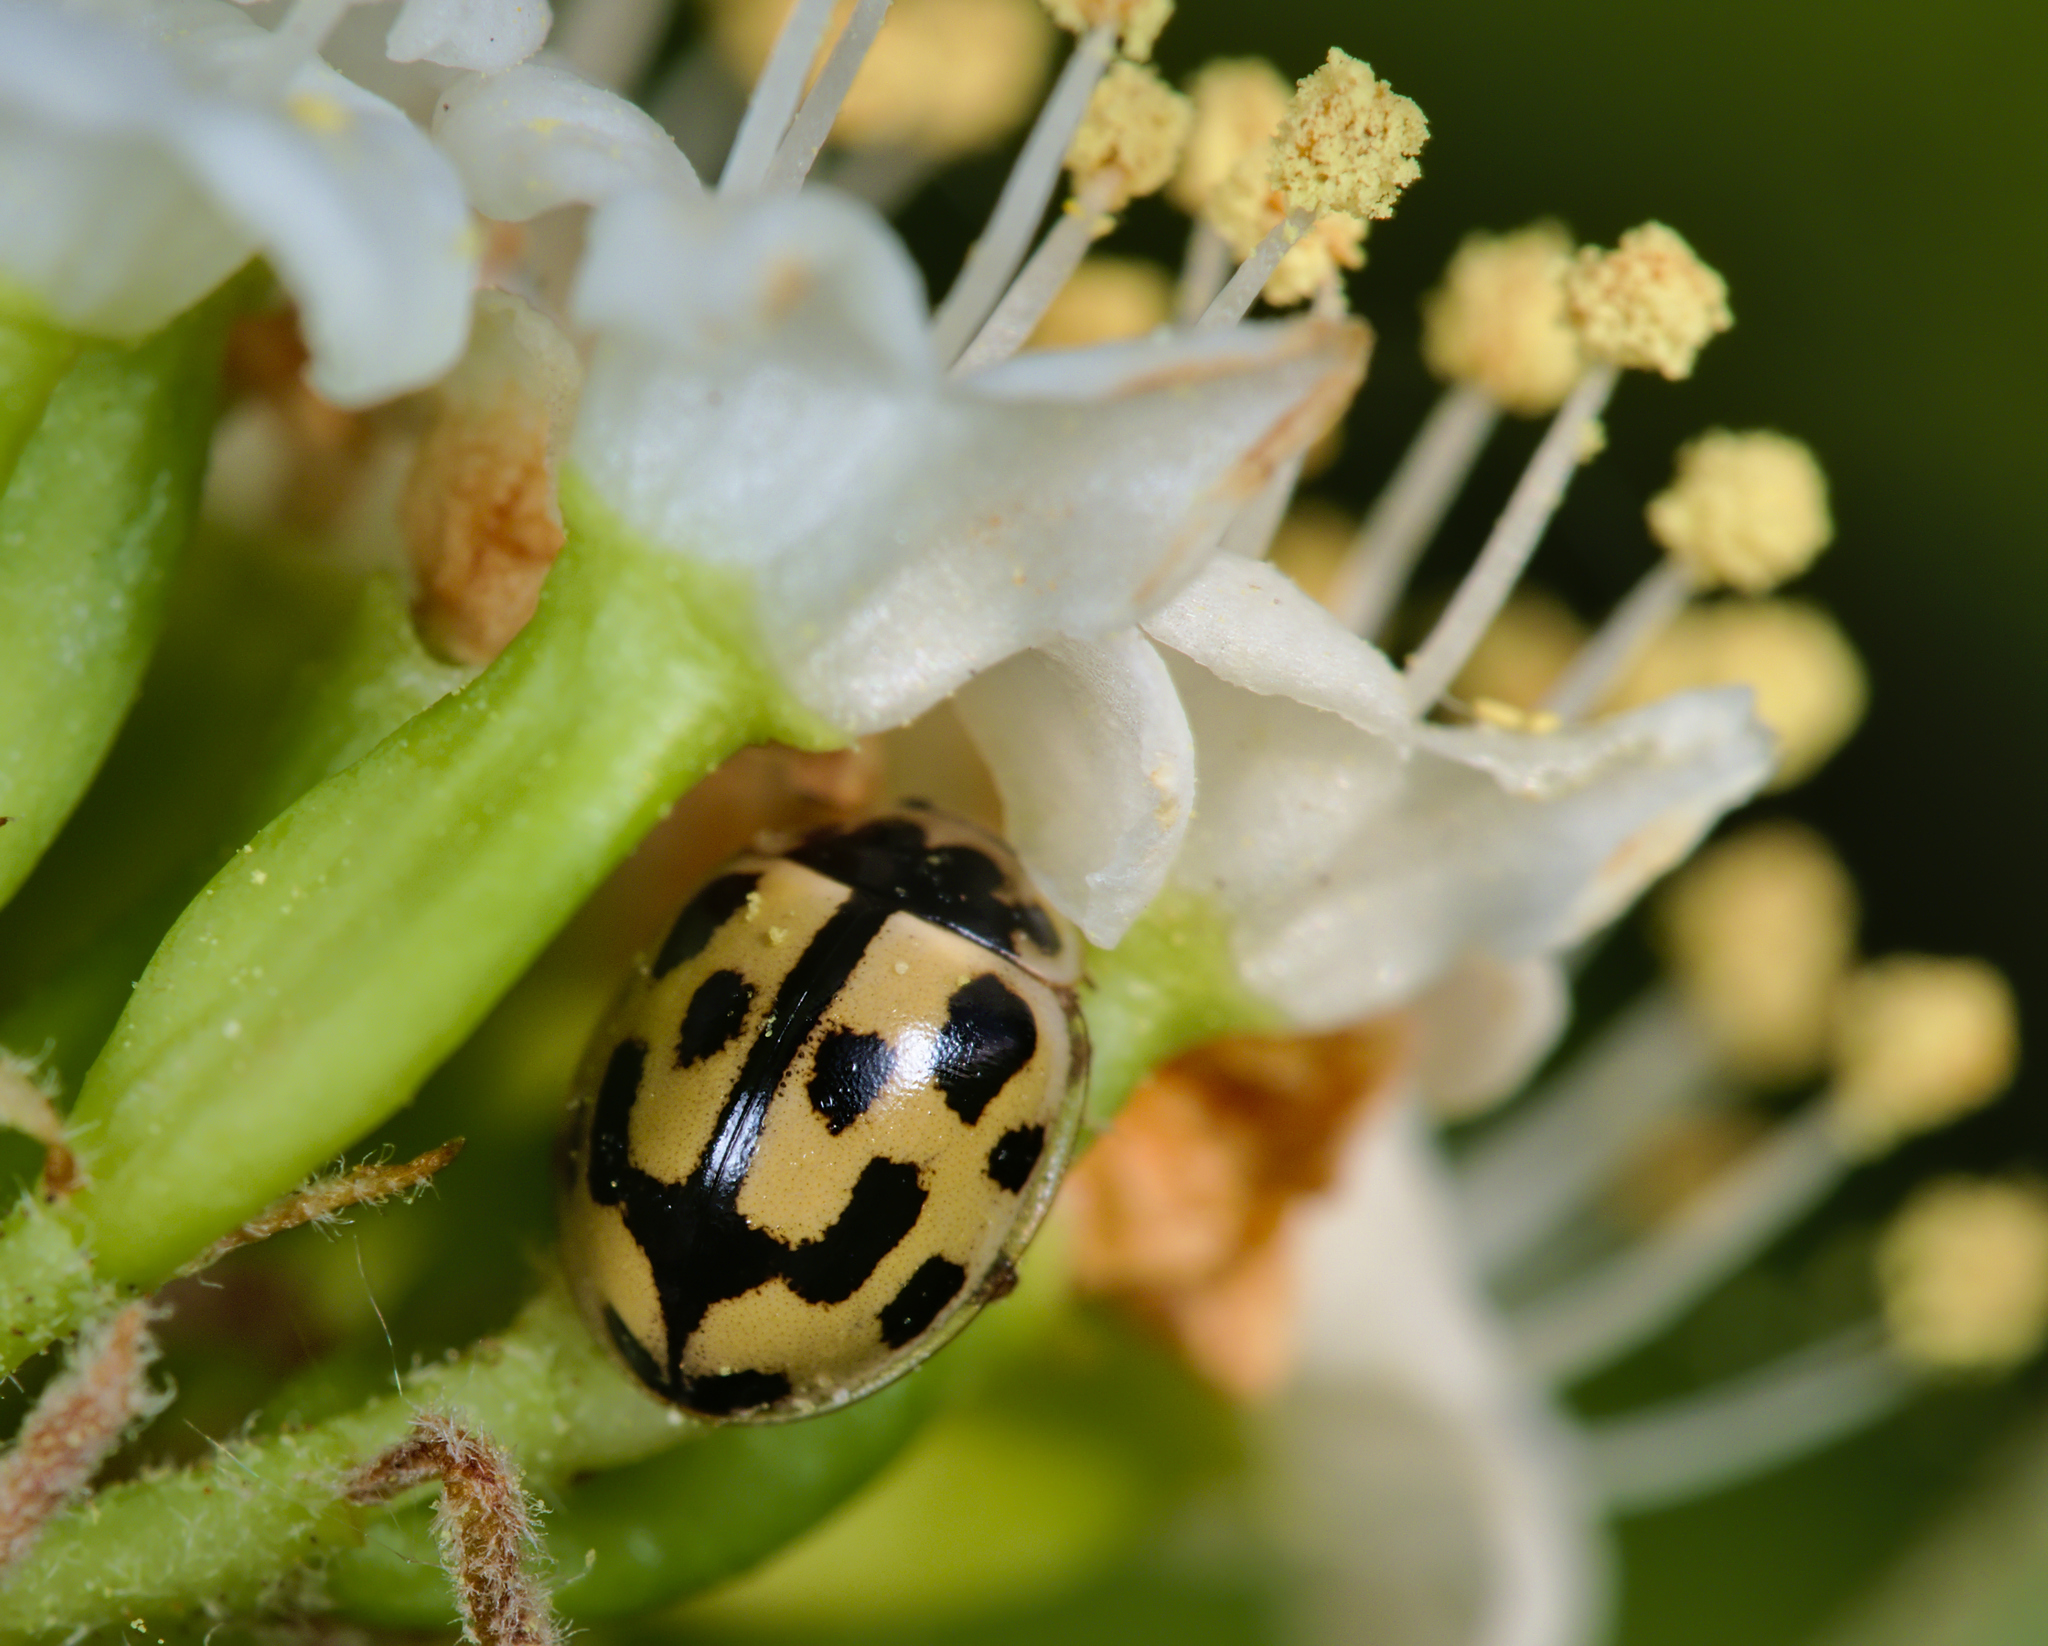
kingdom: Animalia
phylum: Arthropoda
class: Insecta
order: Coleoptera
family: Coccinellidae
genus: Propylaea
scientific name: Propylaea quatuordecimpunctata
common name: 14-spotted ladybird beetle
